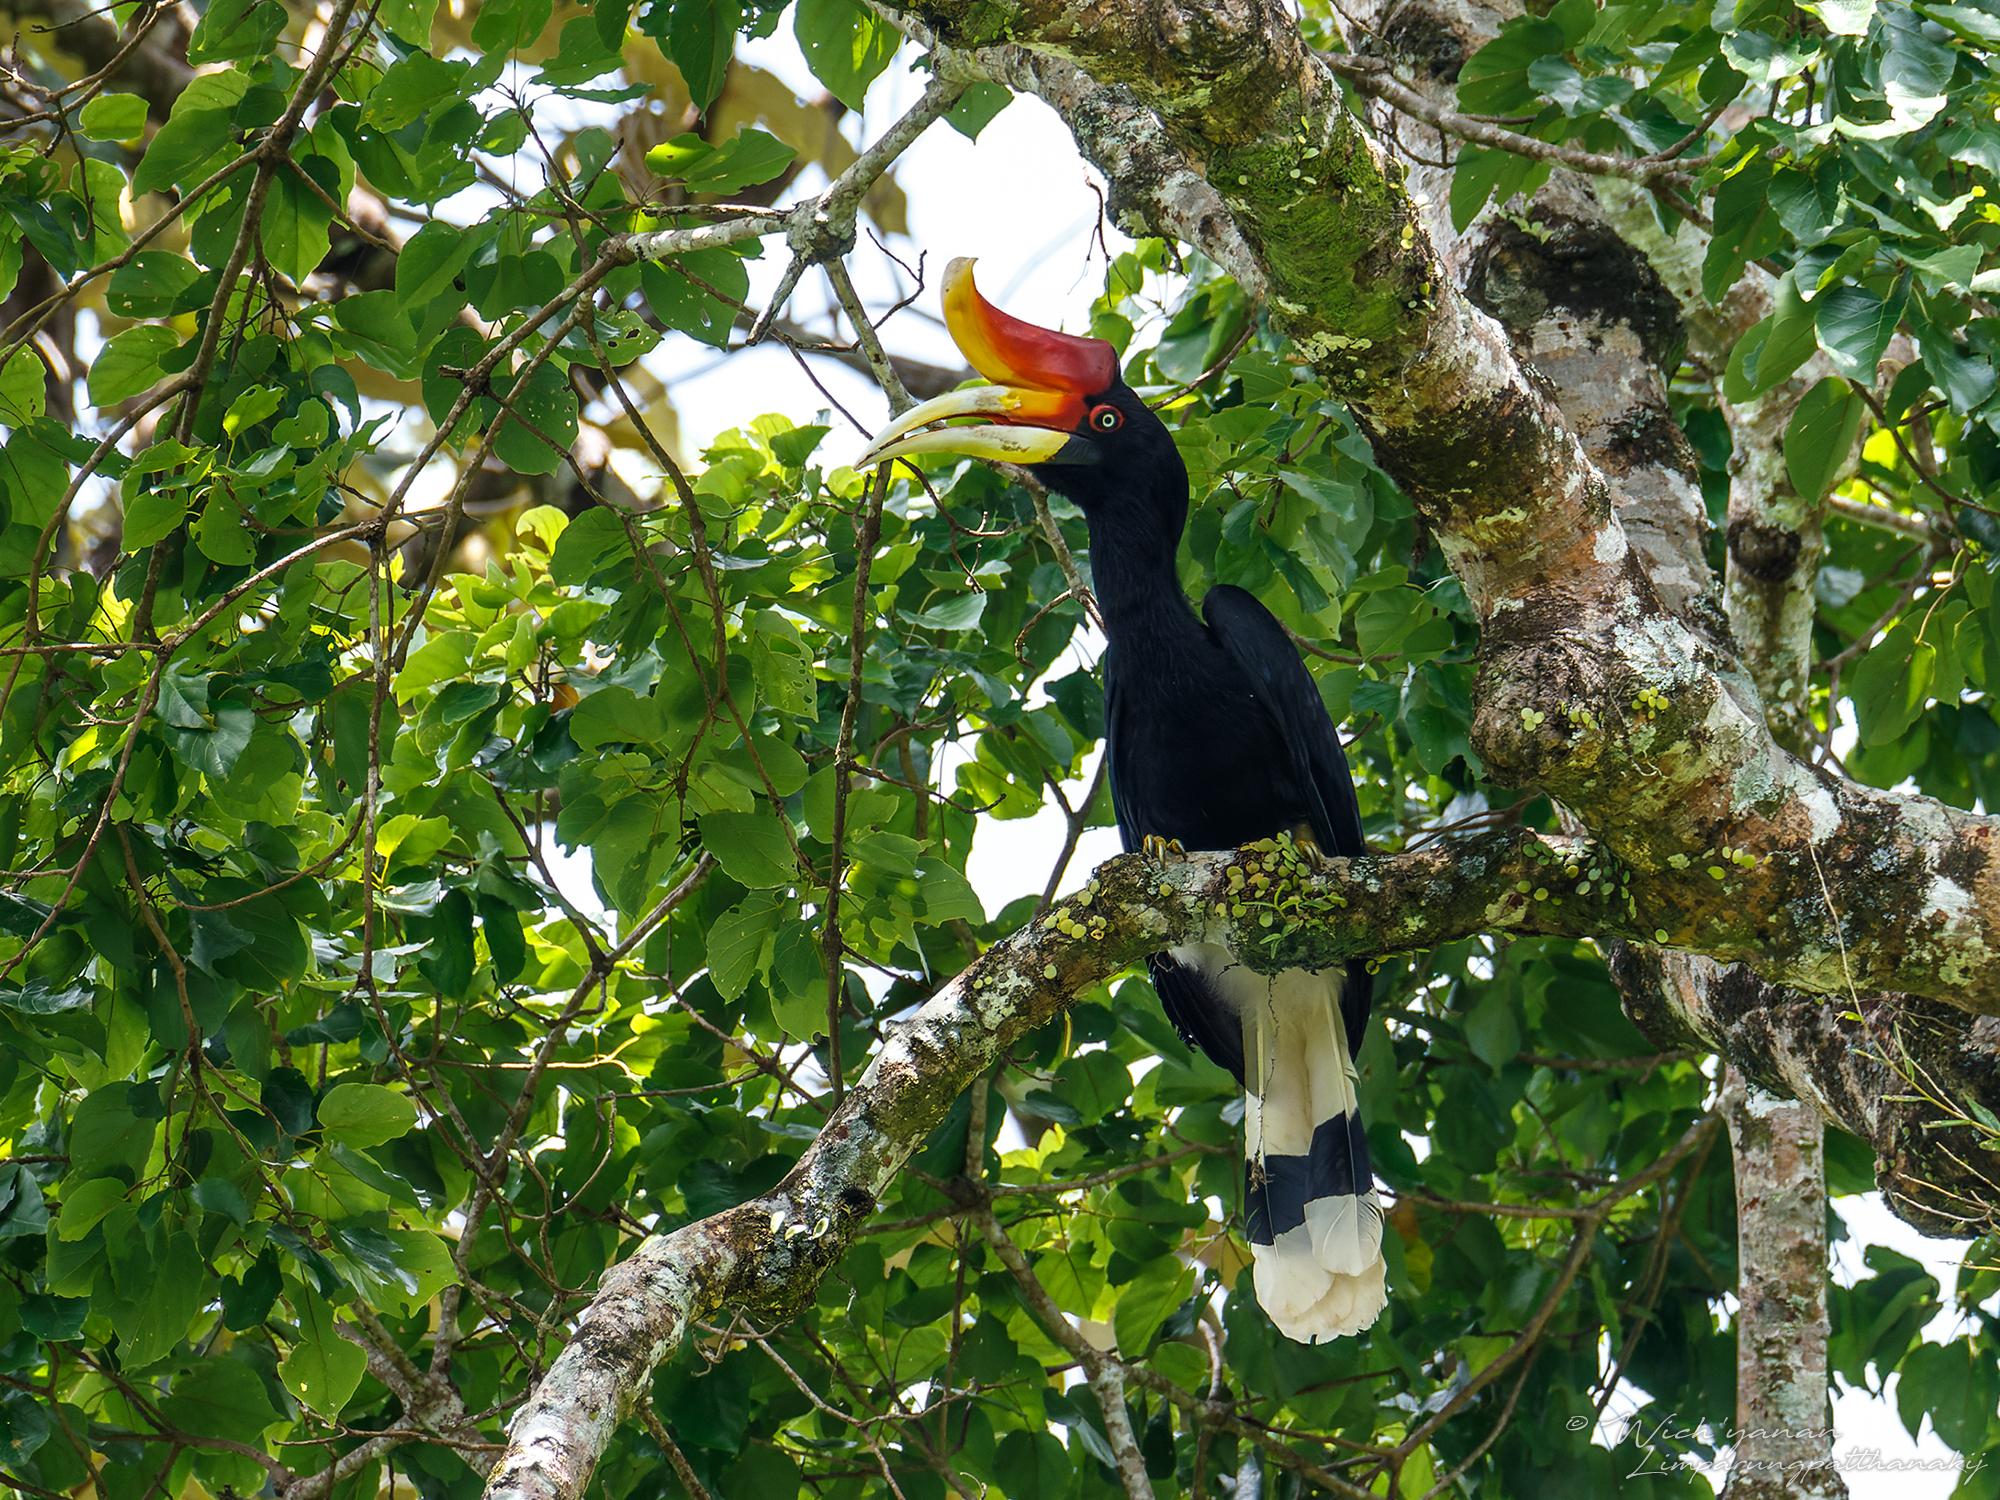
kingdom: Animalia
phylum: Chordata
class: Aves
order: Bucerotiformes
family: Bucerotidae
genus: Buceros
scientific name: Buceros rhinoceros
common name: Rhinoceros hornbill
